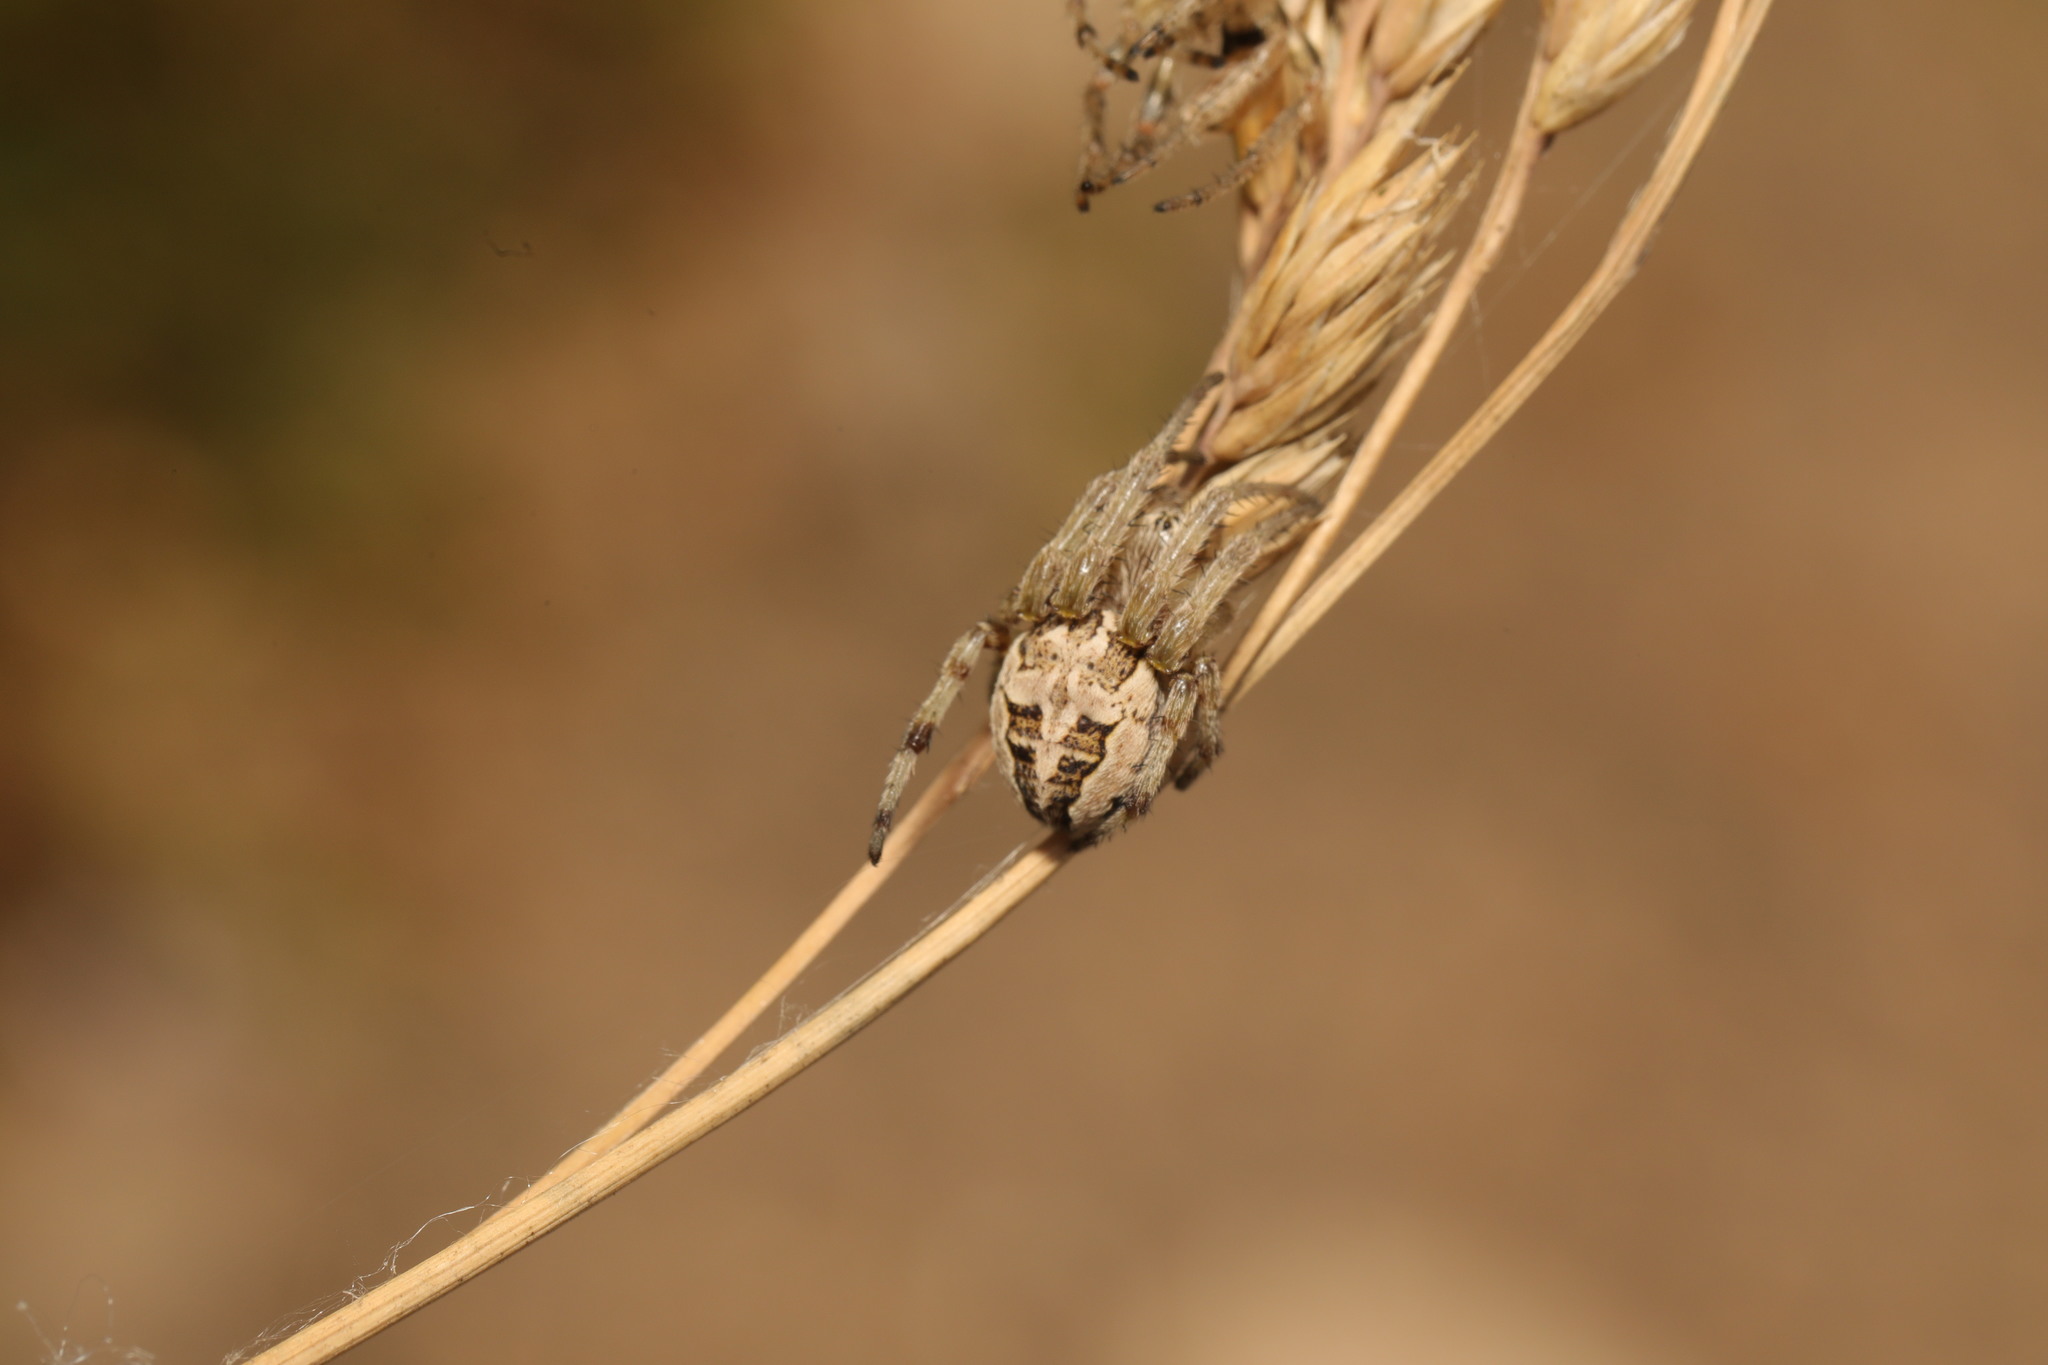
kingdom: Animalia
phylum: Arthropoda
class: Arachnida
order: Araneae
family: Araneidae
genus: Larinioides
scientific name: Larinioides cornutus
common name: Furrow orbweaver
